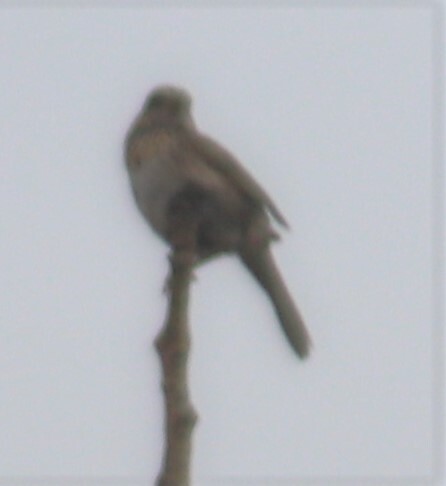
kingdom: Animalia
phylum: Chordata
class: Aves
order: Passeriformes
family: Passerellidae
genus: Melospiza
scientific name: Melospiza lincolnii
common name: Lincoln's sparrow
